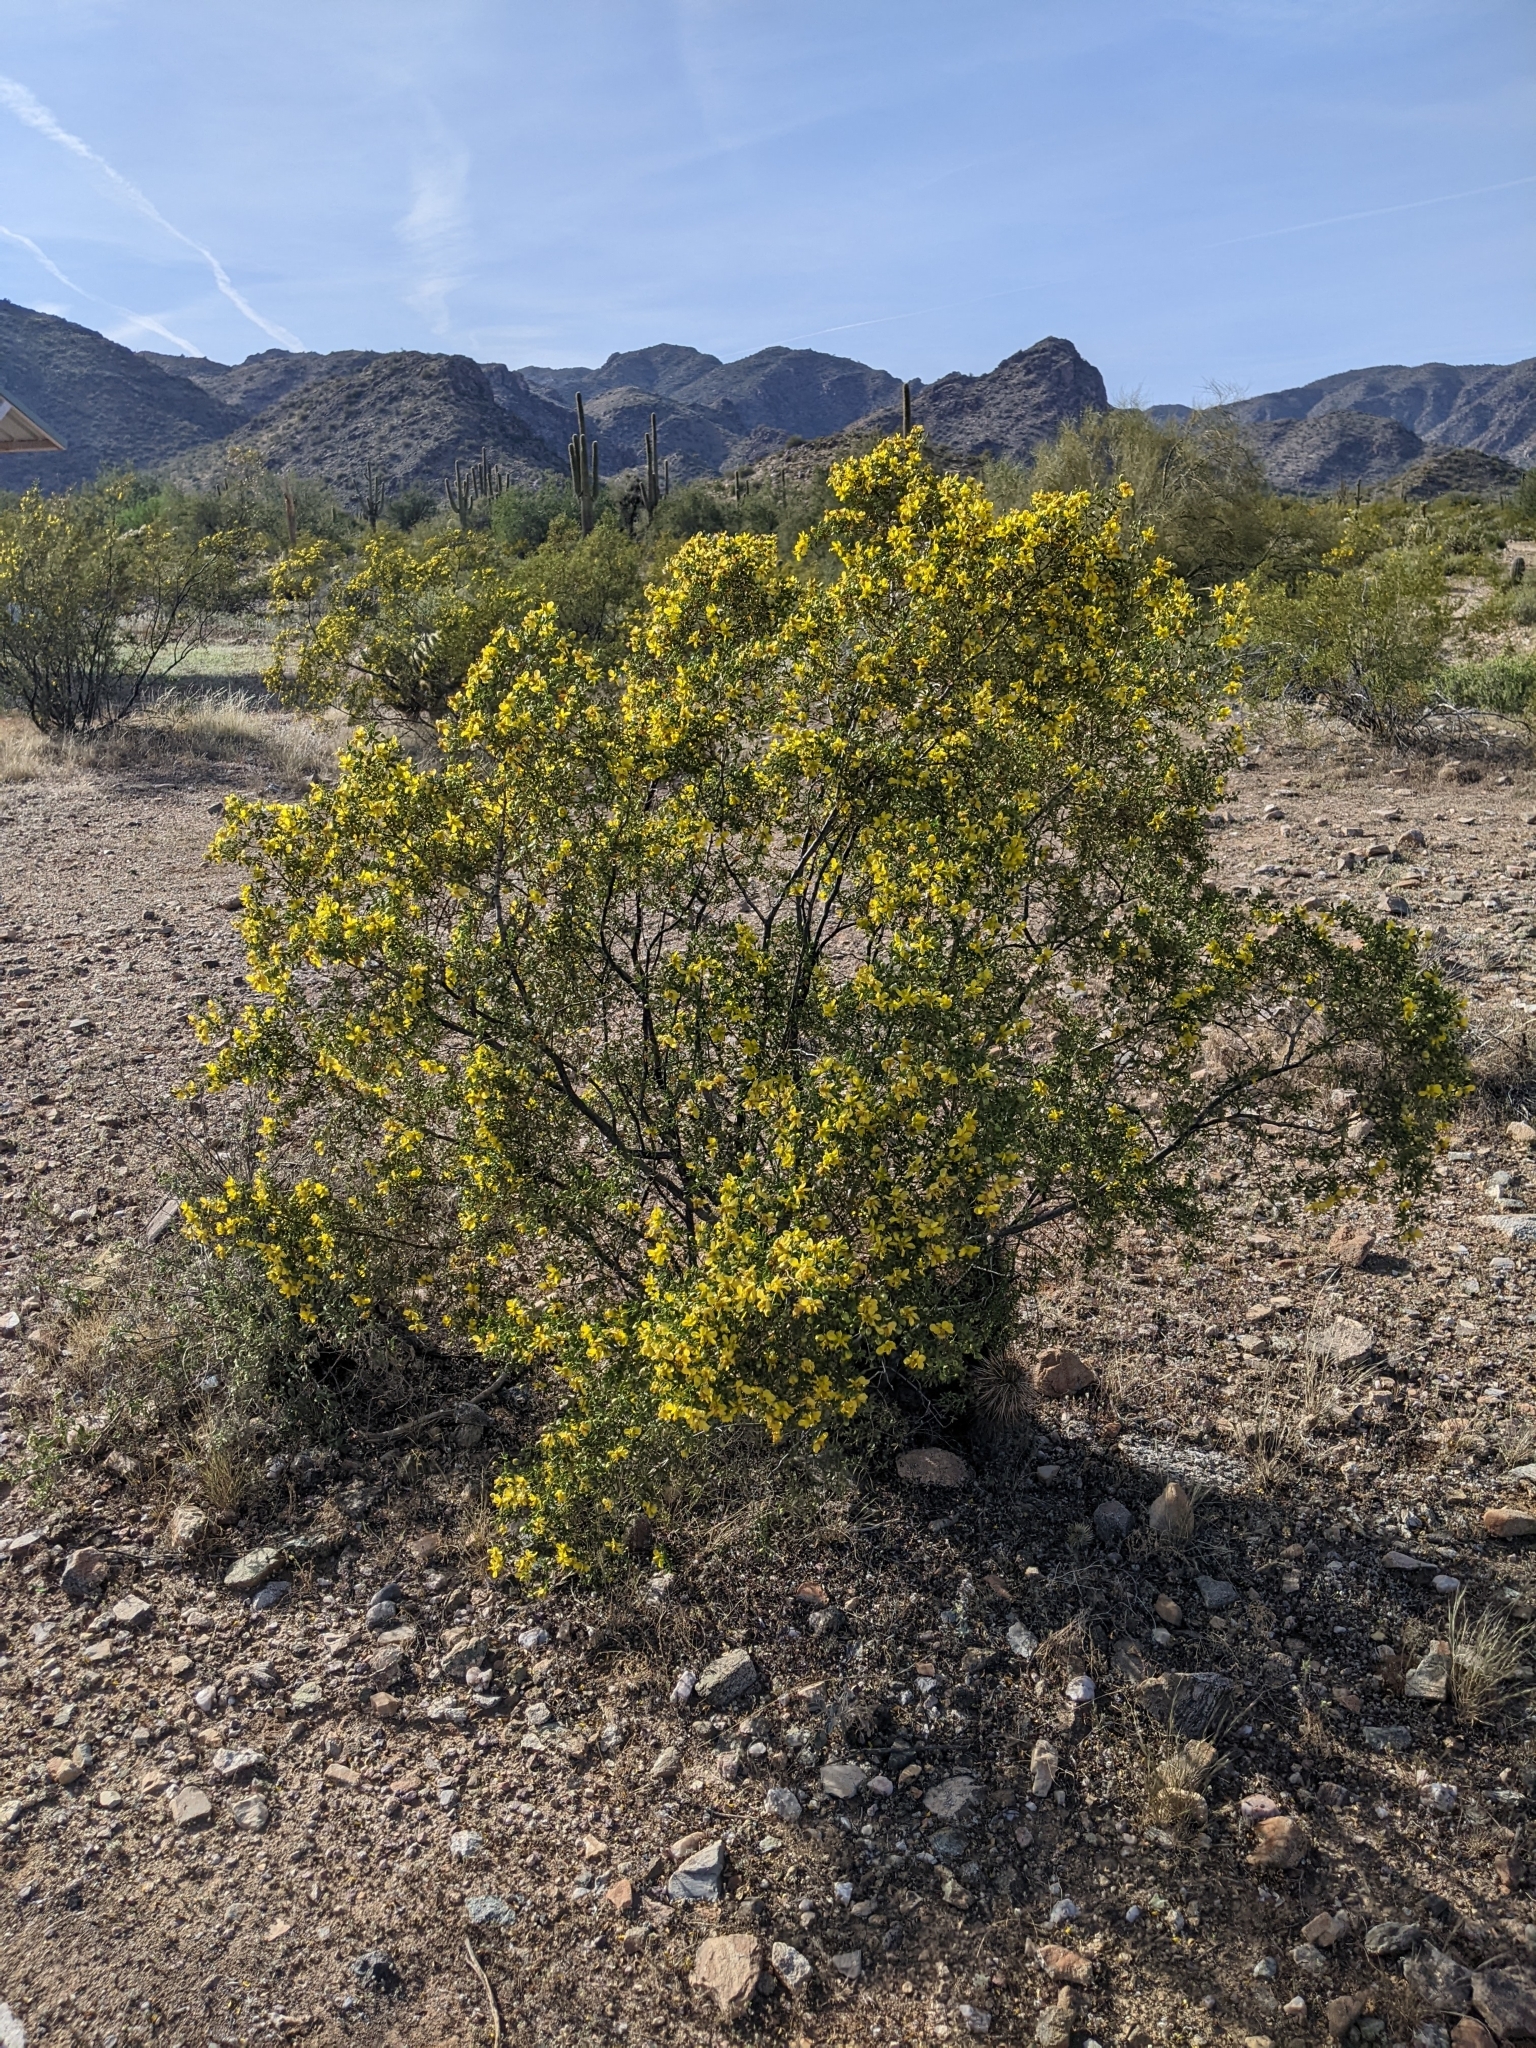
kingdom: Plantae
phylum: Tracheophyta
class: Magnoliopsida
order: Zygophyllales
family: Zygophyllaceae
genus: Larrea
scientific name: Larrea tridentata
